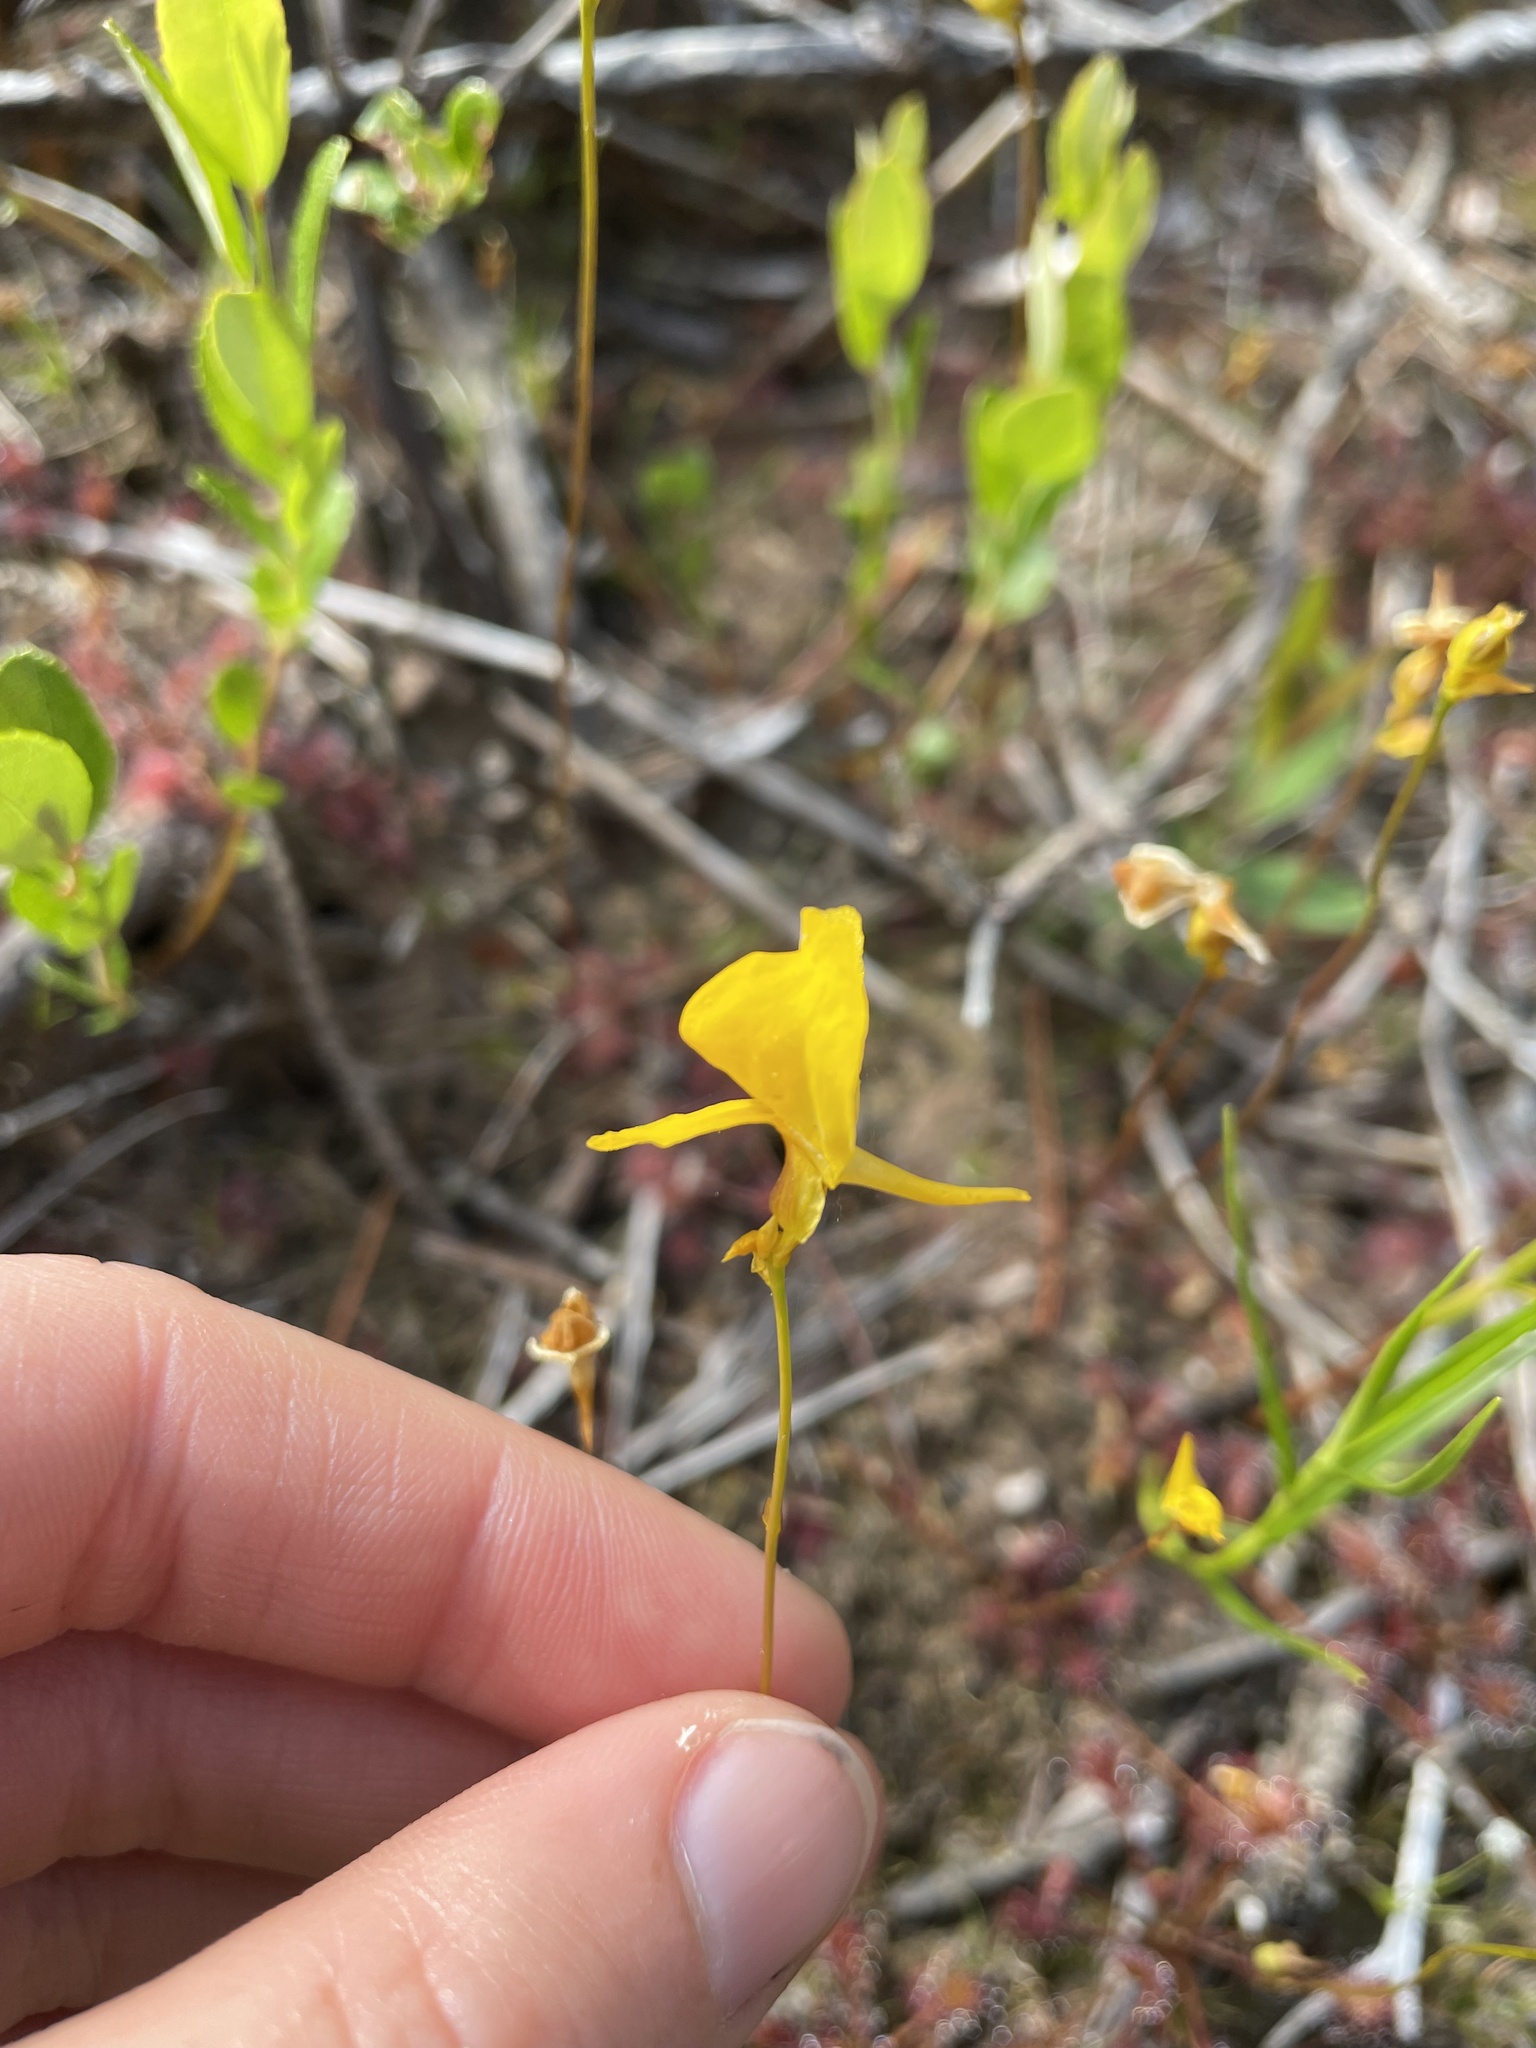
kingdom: Plantae
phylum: Tracheophyta
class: Magnoliopsida
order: Lamiales
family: Lentibulariaceae
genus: Utricularia
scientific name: Utricularia cornuta
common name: Horned bladderwort
